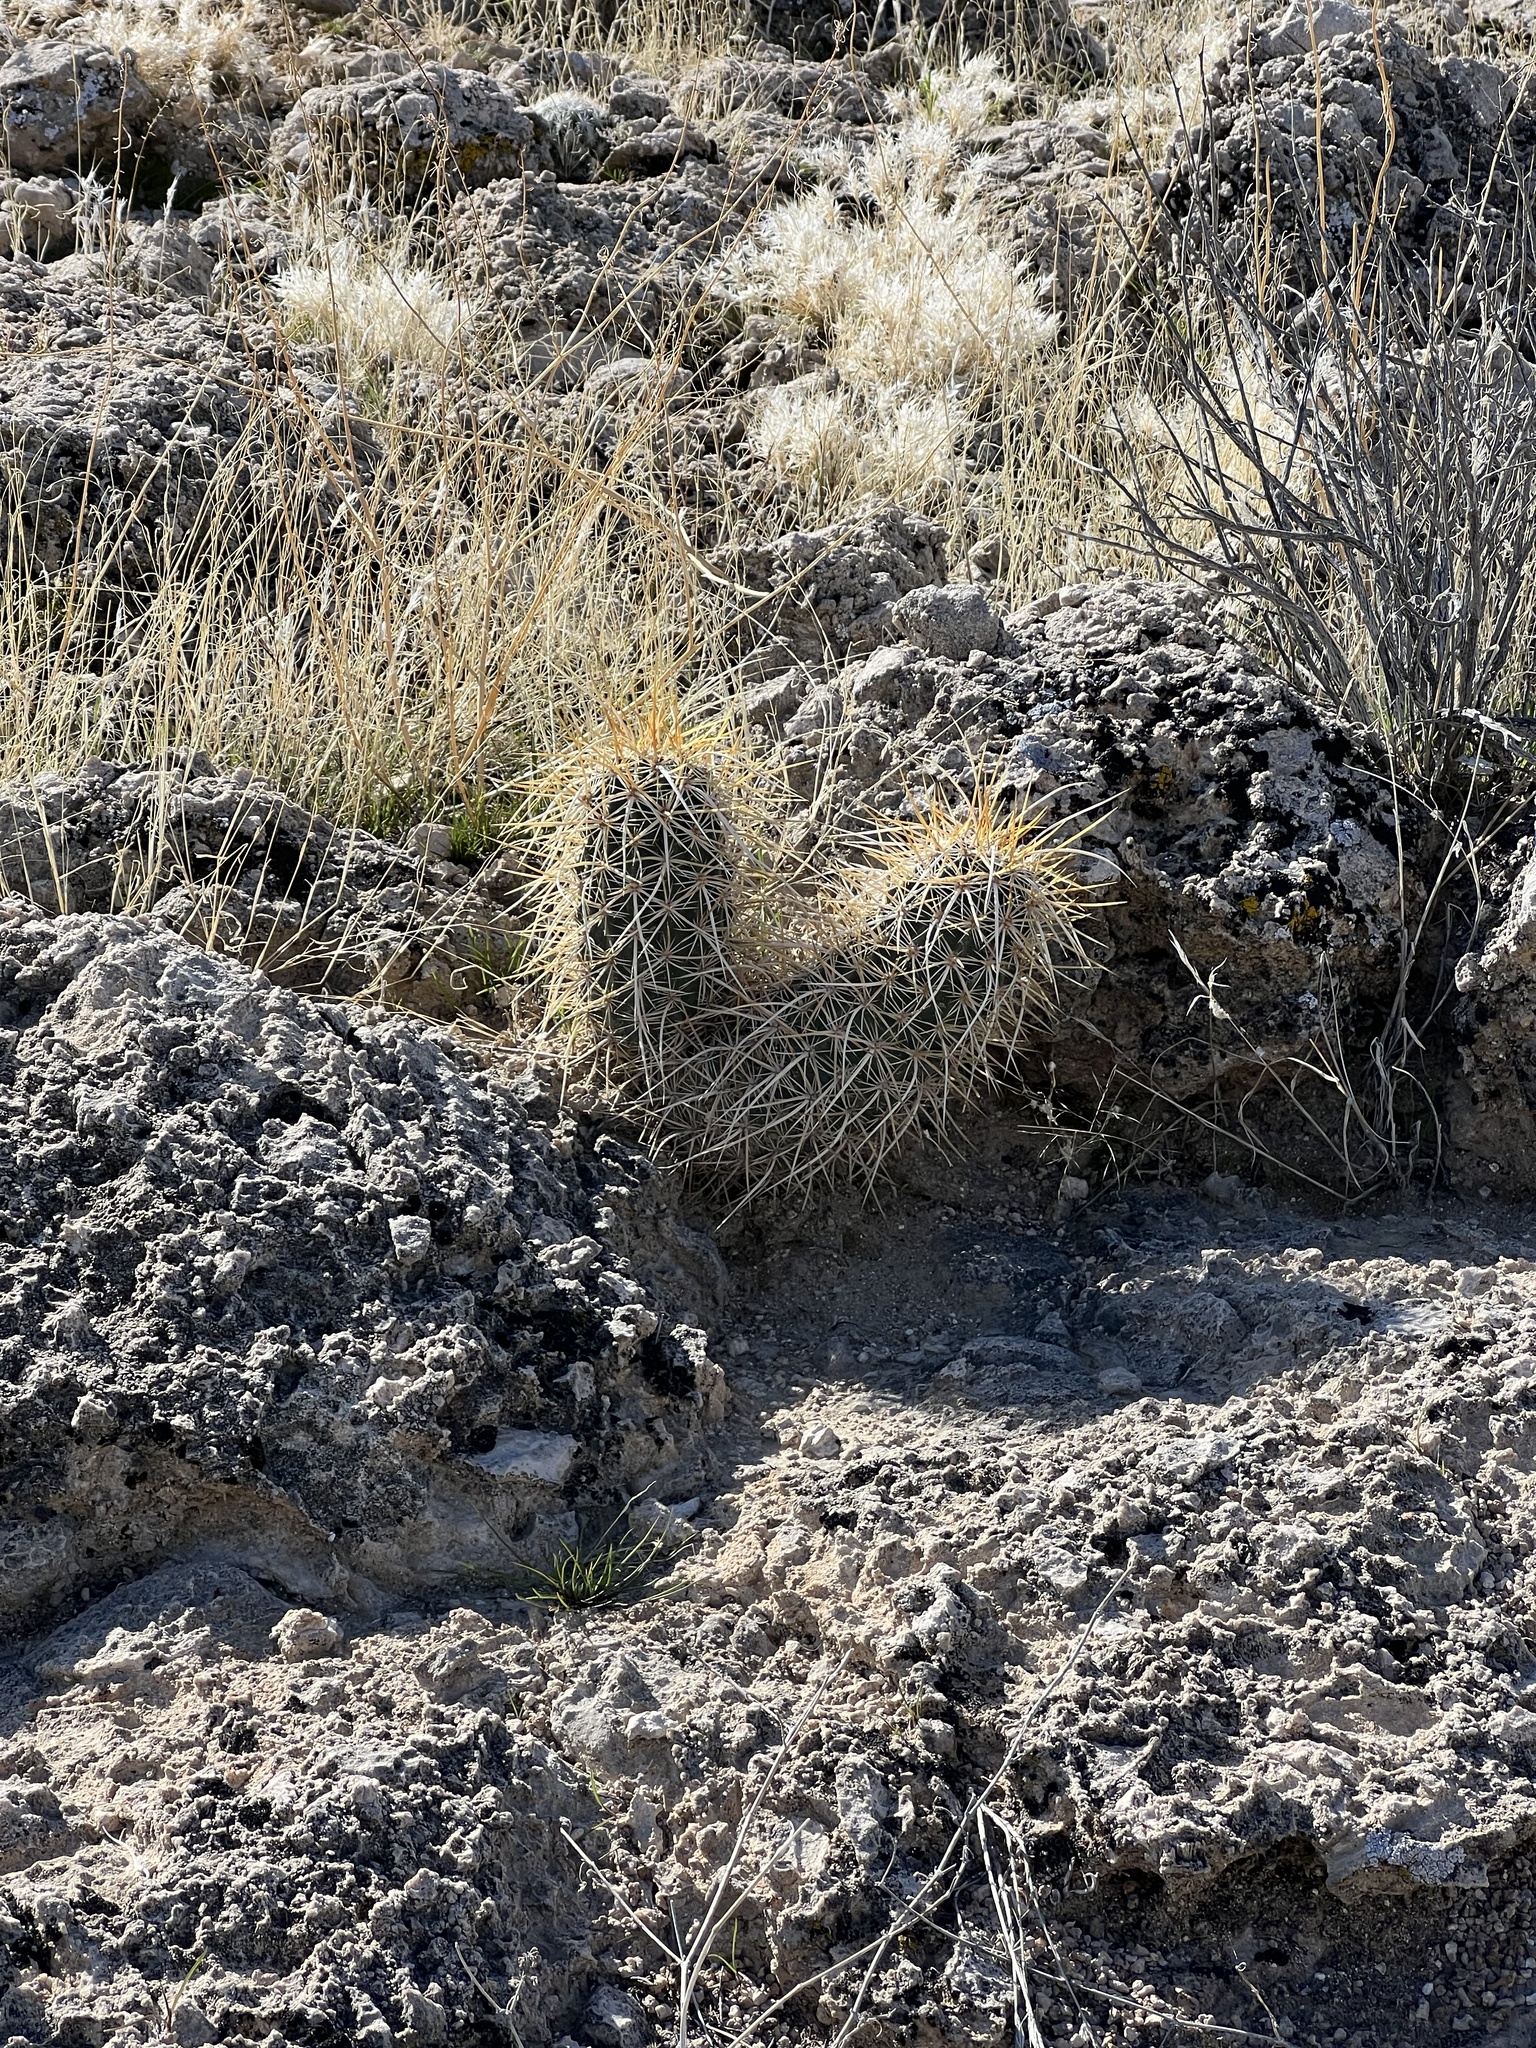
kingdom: Plantae
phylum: Tracheophyta
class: Magnoliopsida
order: Caryophyllales
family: Cactaceae
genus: Echinocereus
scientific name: Echinocereus engelmannii
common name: Engelmann's hedgehog cactus
